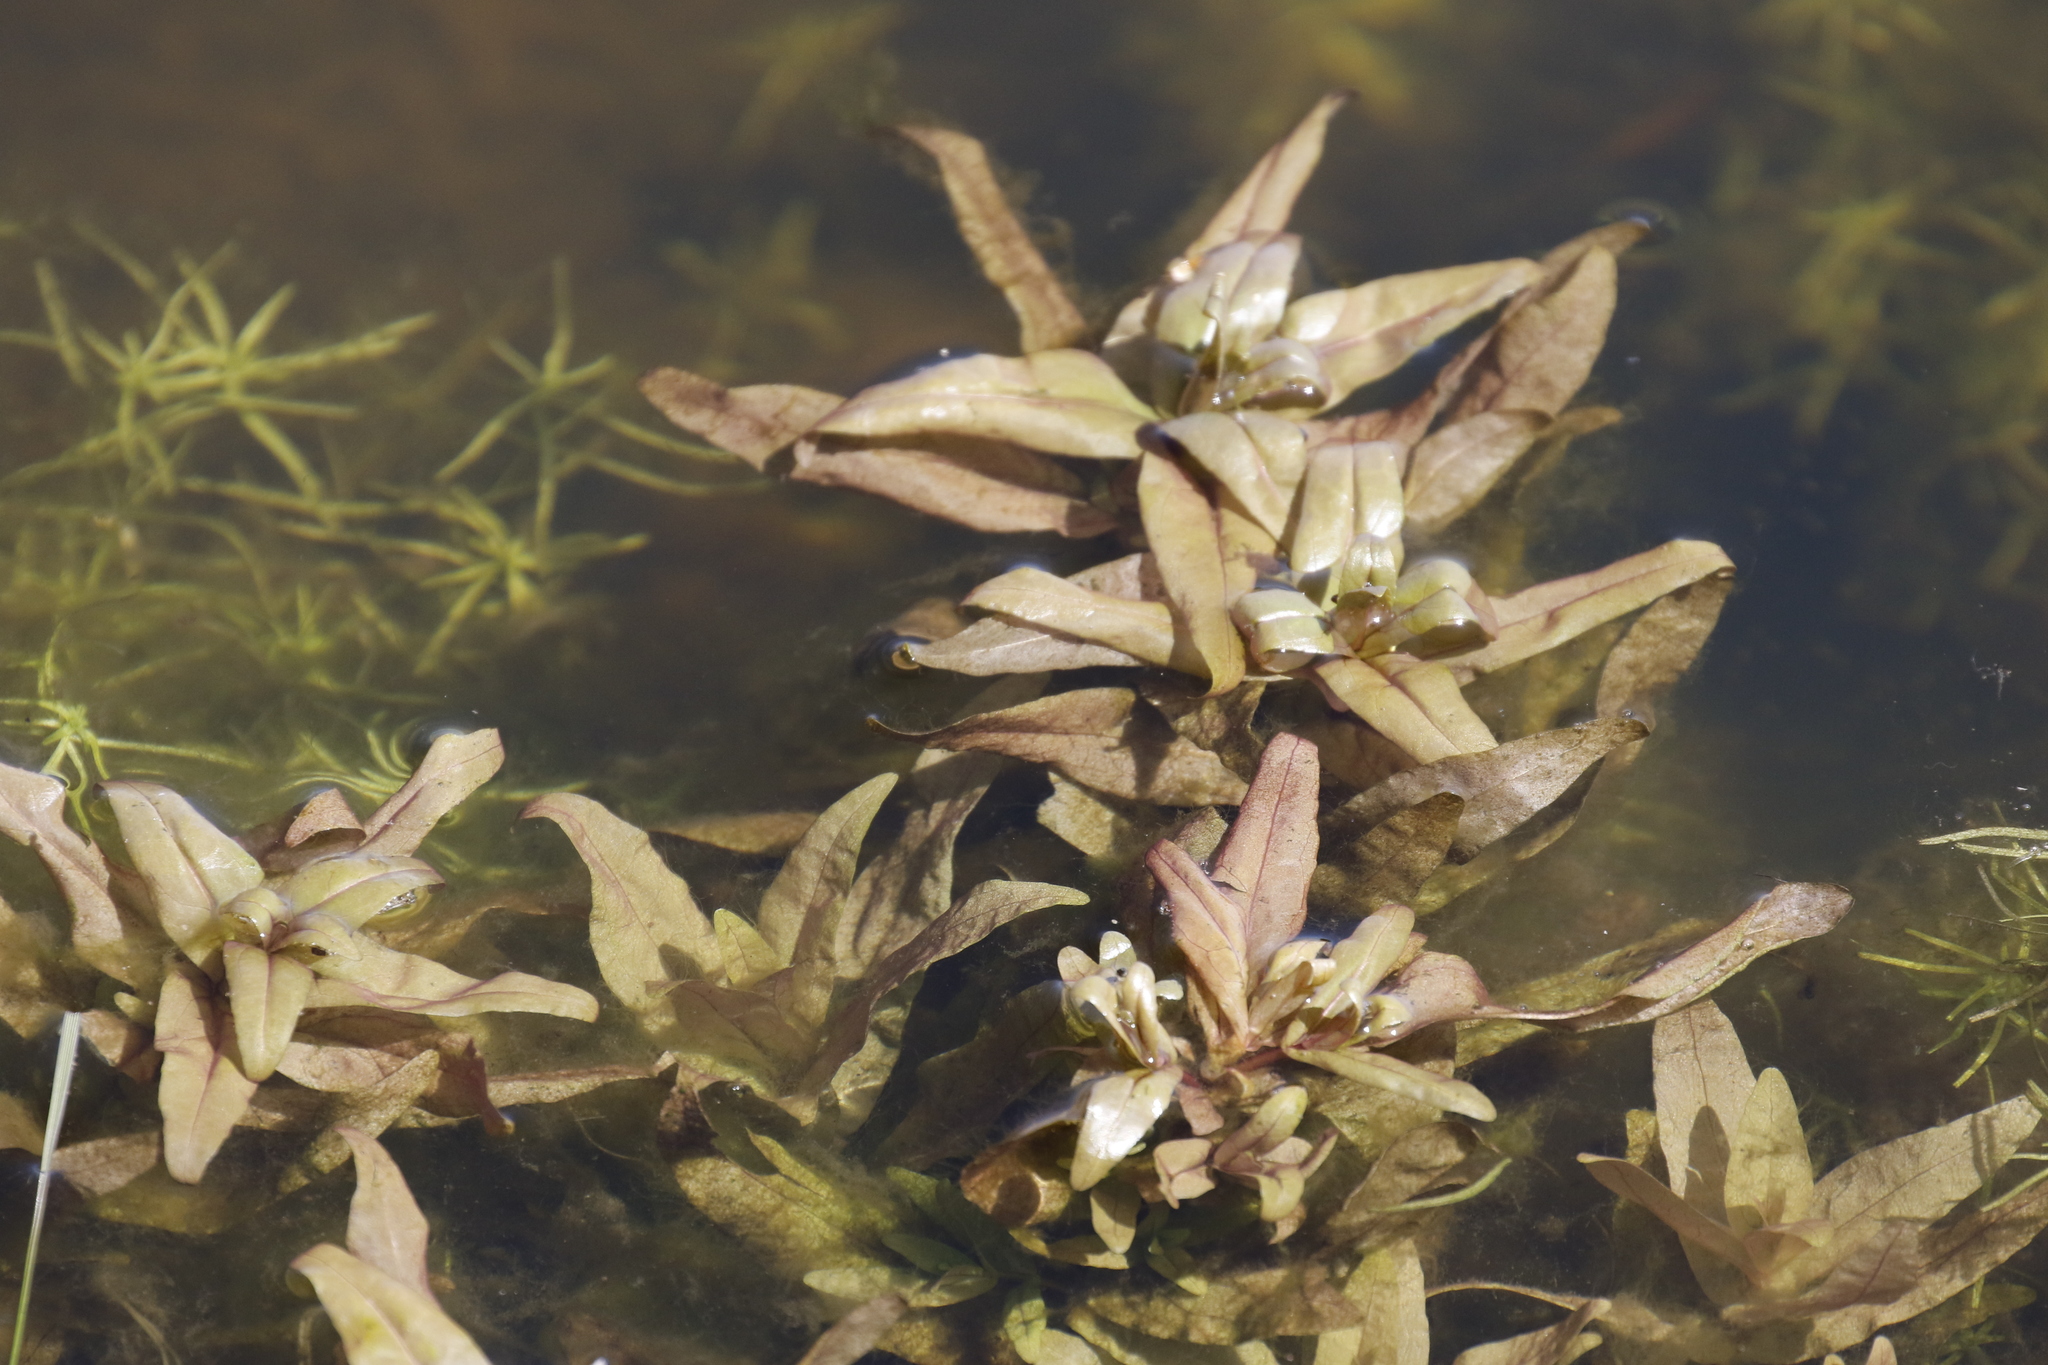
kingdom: Plantae
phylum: Tracheophyta
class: Magnoliopsida
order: Lamiales
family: Plantaginaceae
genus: Veronica
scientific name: Veronica anagallis-aquatica
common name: Water speedwell
